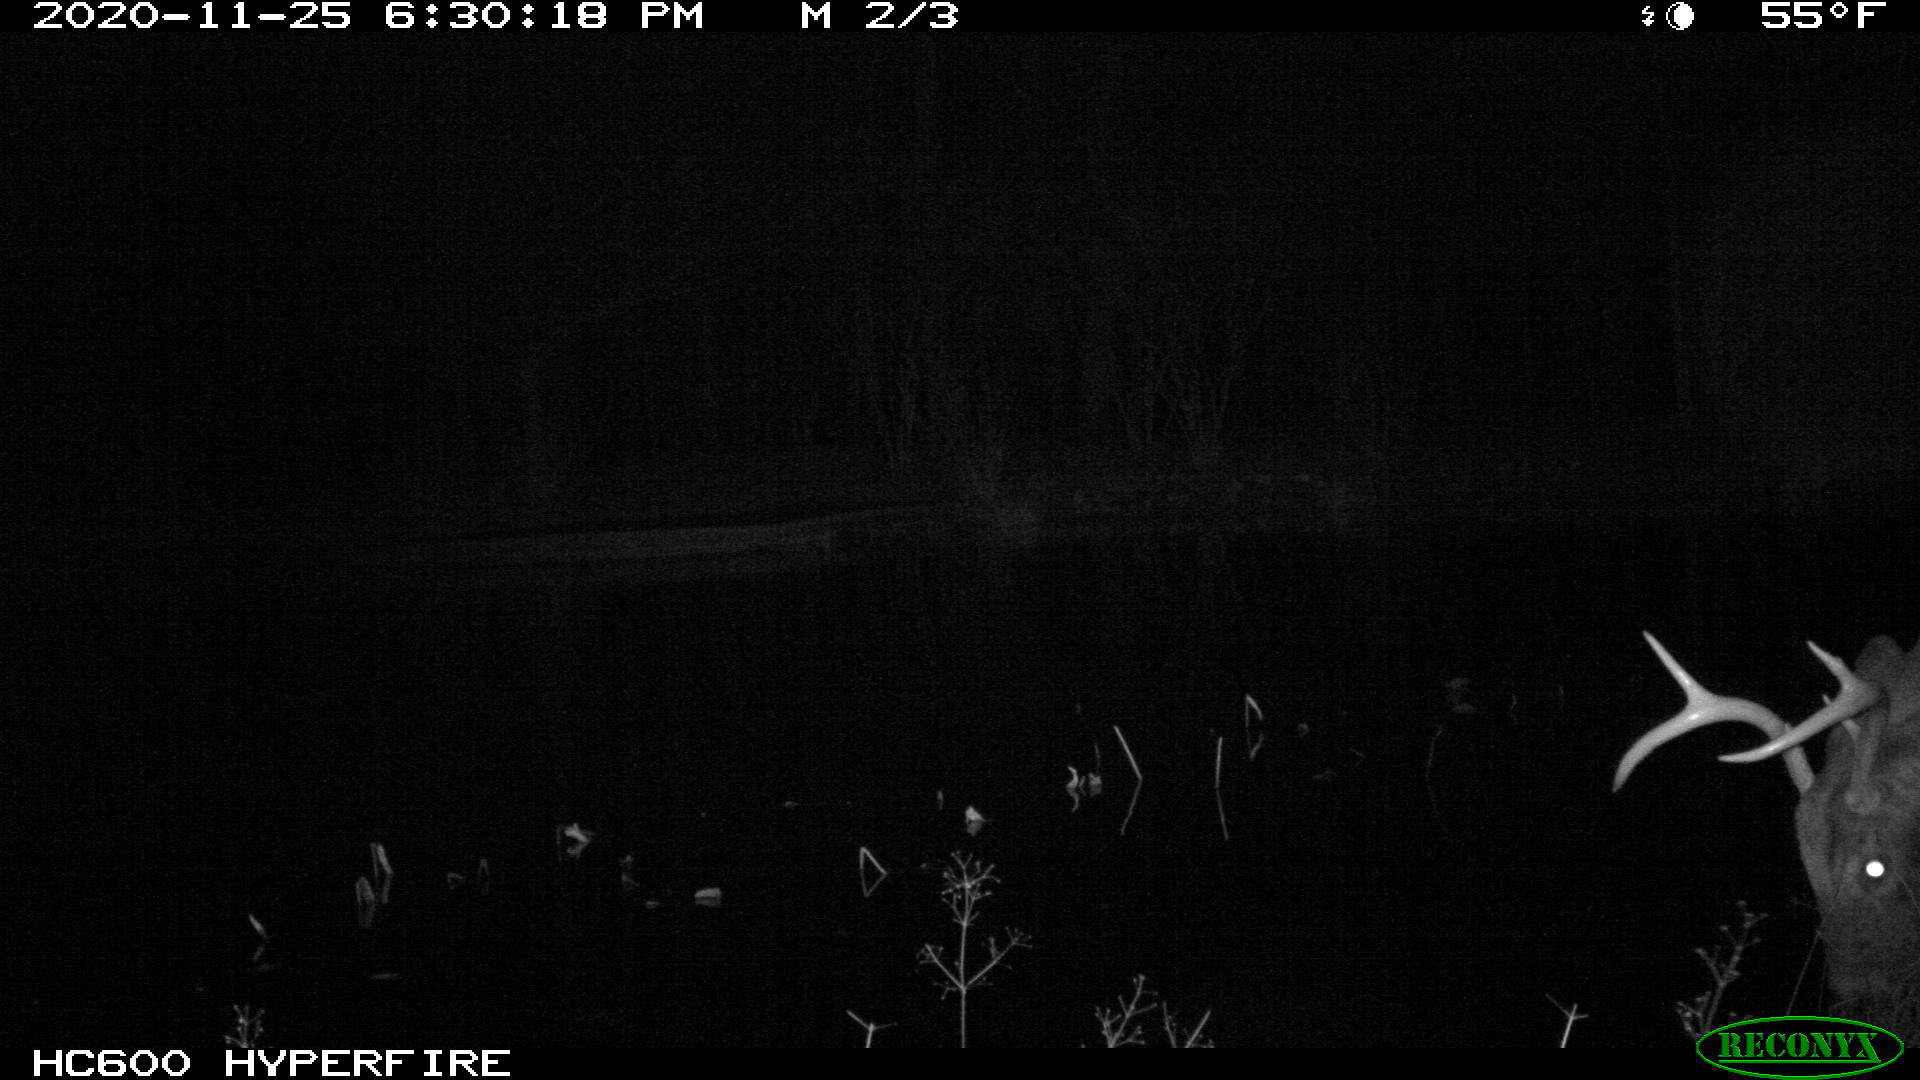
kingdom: Animalia
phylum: Chordata
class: Mammalia
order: Artiodactyla
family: Cervidae
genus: Odocoileus
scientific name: Odocoileus virginianus
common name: White-tailed deer
